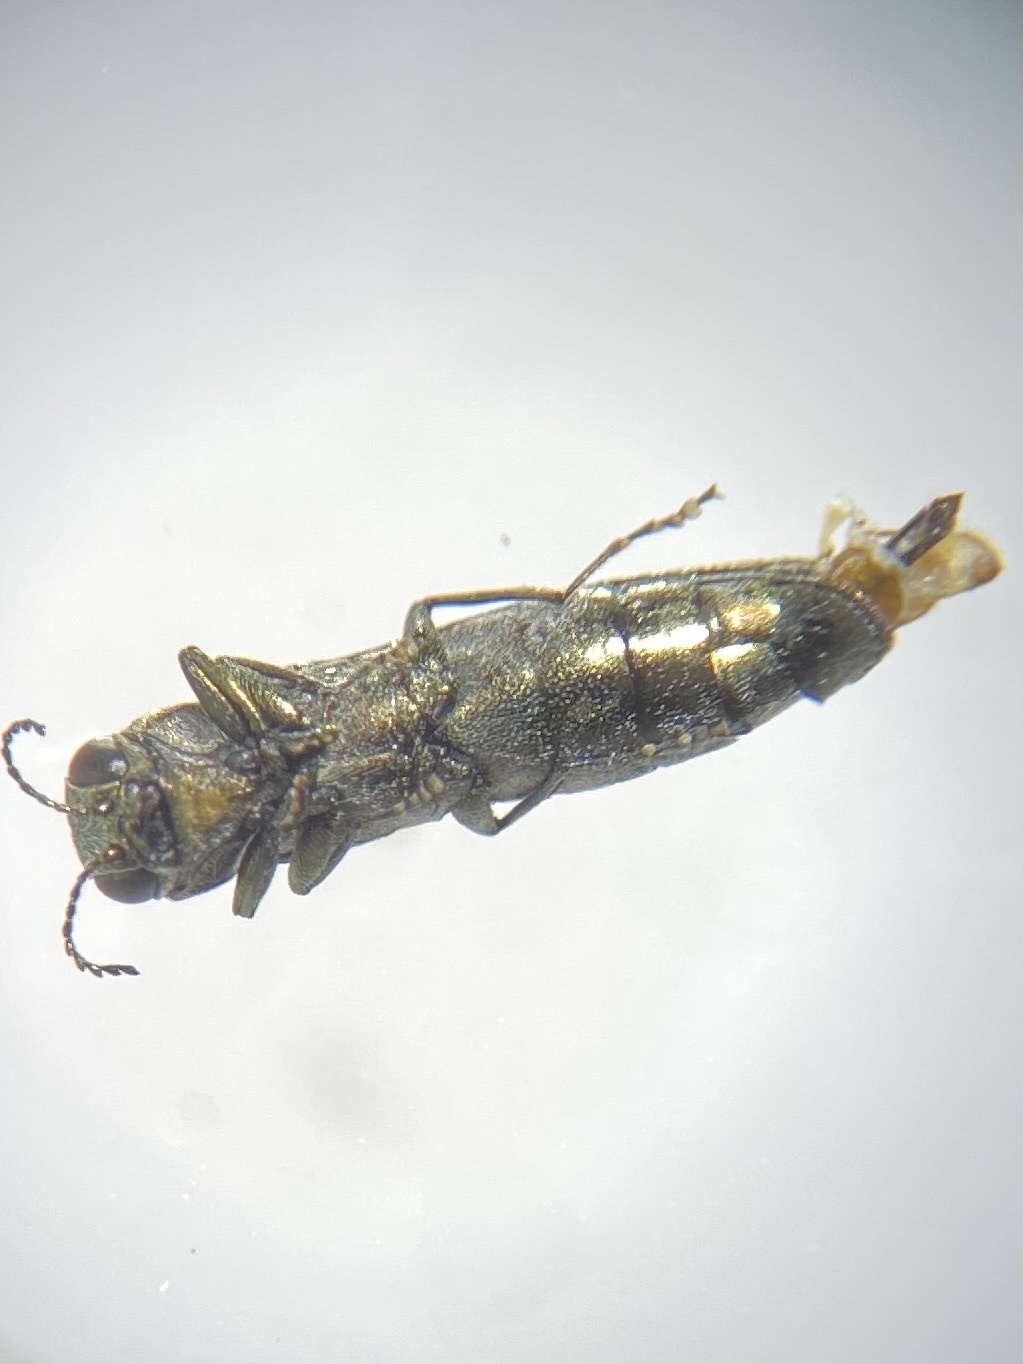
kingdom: Animalia
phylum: Arthropoda
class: Insecta
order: Coleoptera
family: Buprestidae
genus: Agrilus
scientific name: Agrilus masculinus
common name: Maple agrilus
